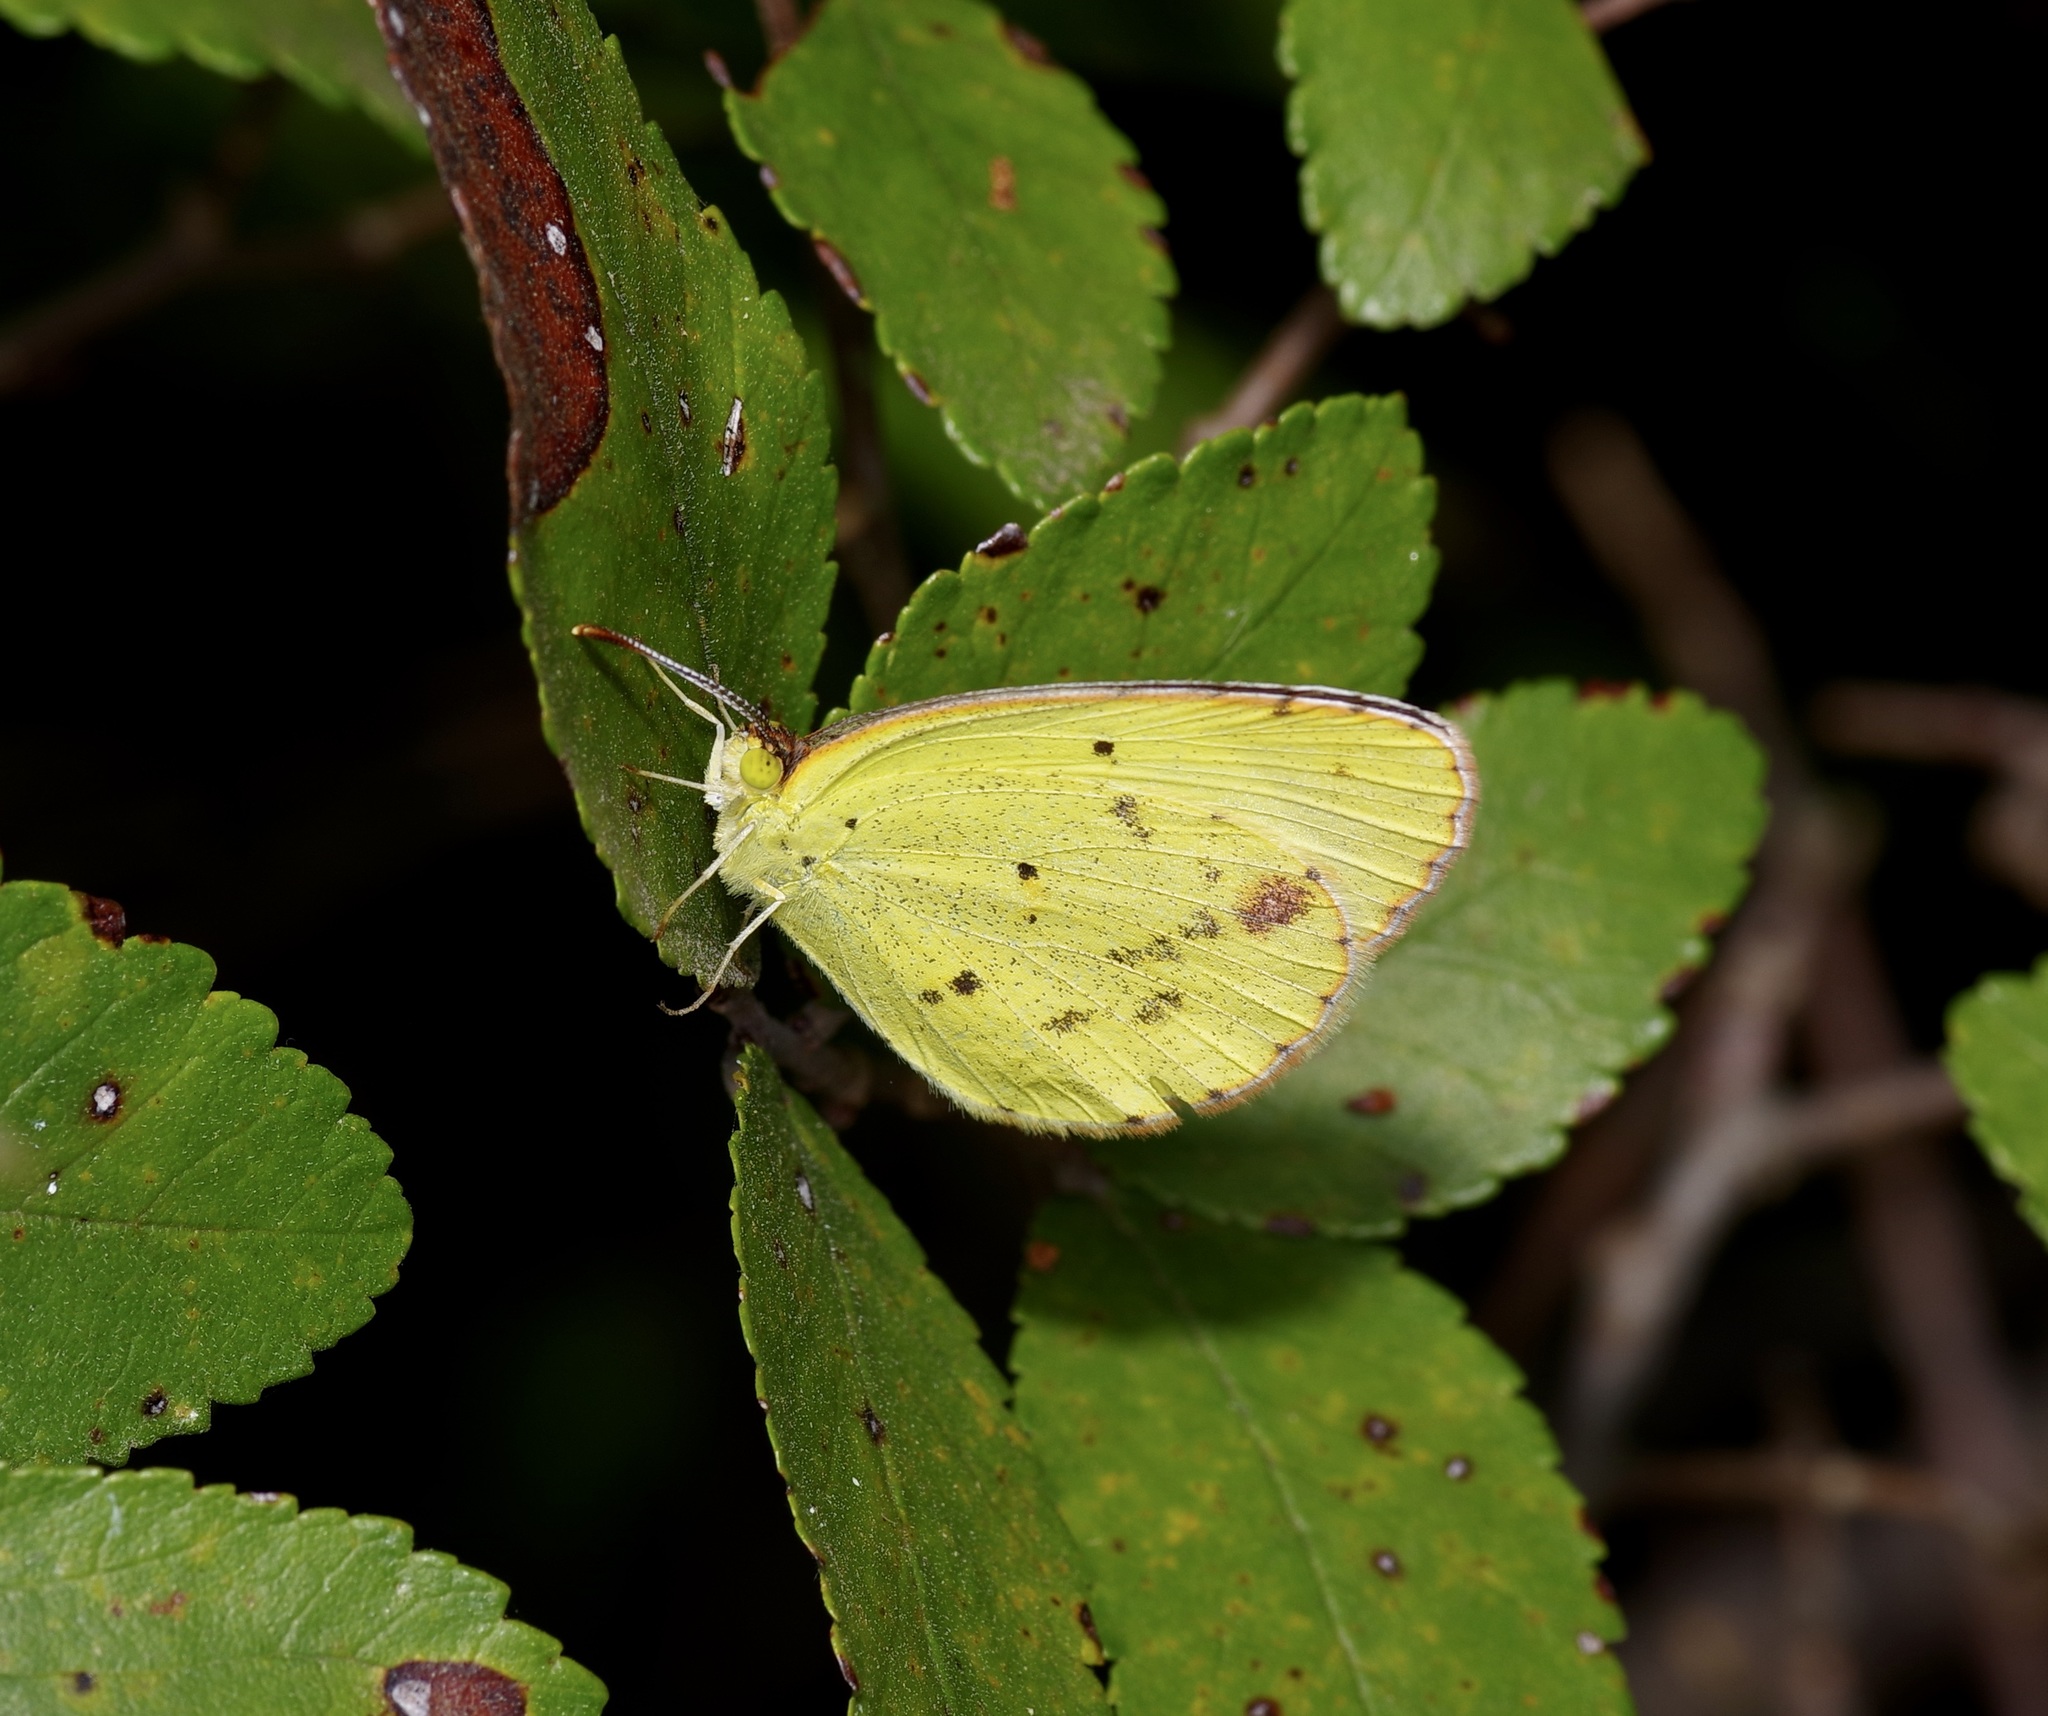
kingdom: Animalia
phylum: Arthropoda
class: Insecta
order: Lepidoptera
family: Pieridae
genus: Pyrisitia
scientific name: Pyrisitia lisa
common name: Little yellow
